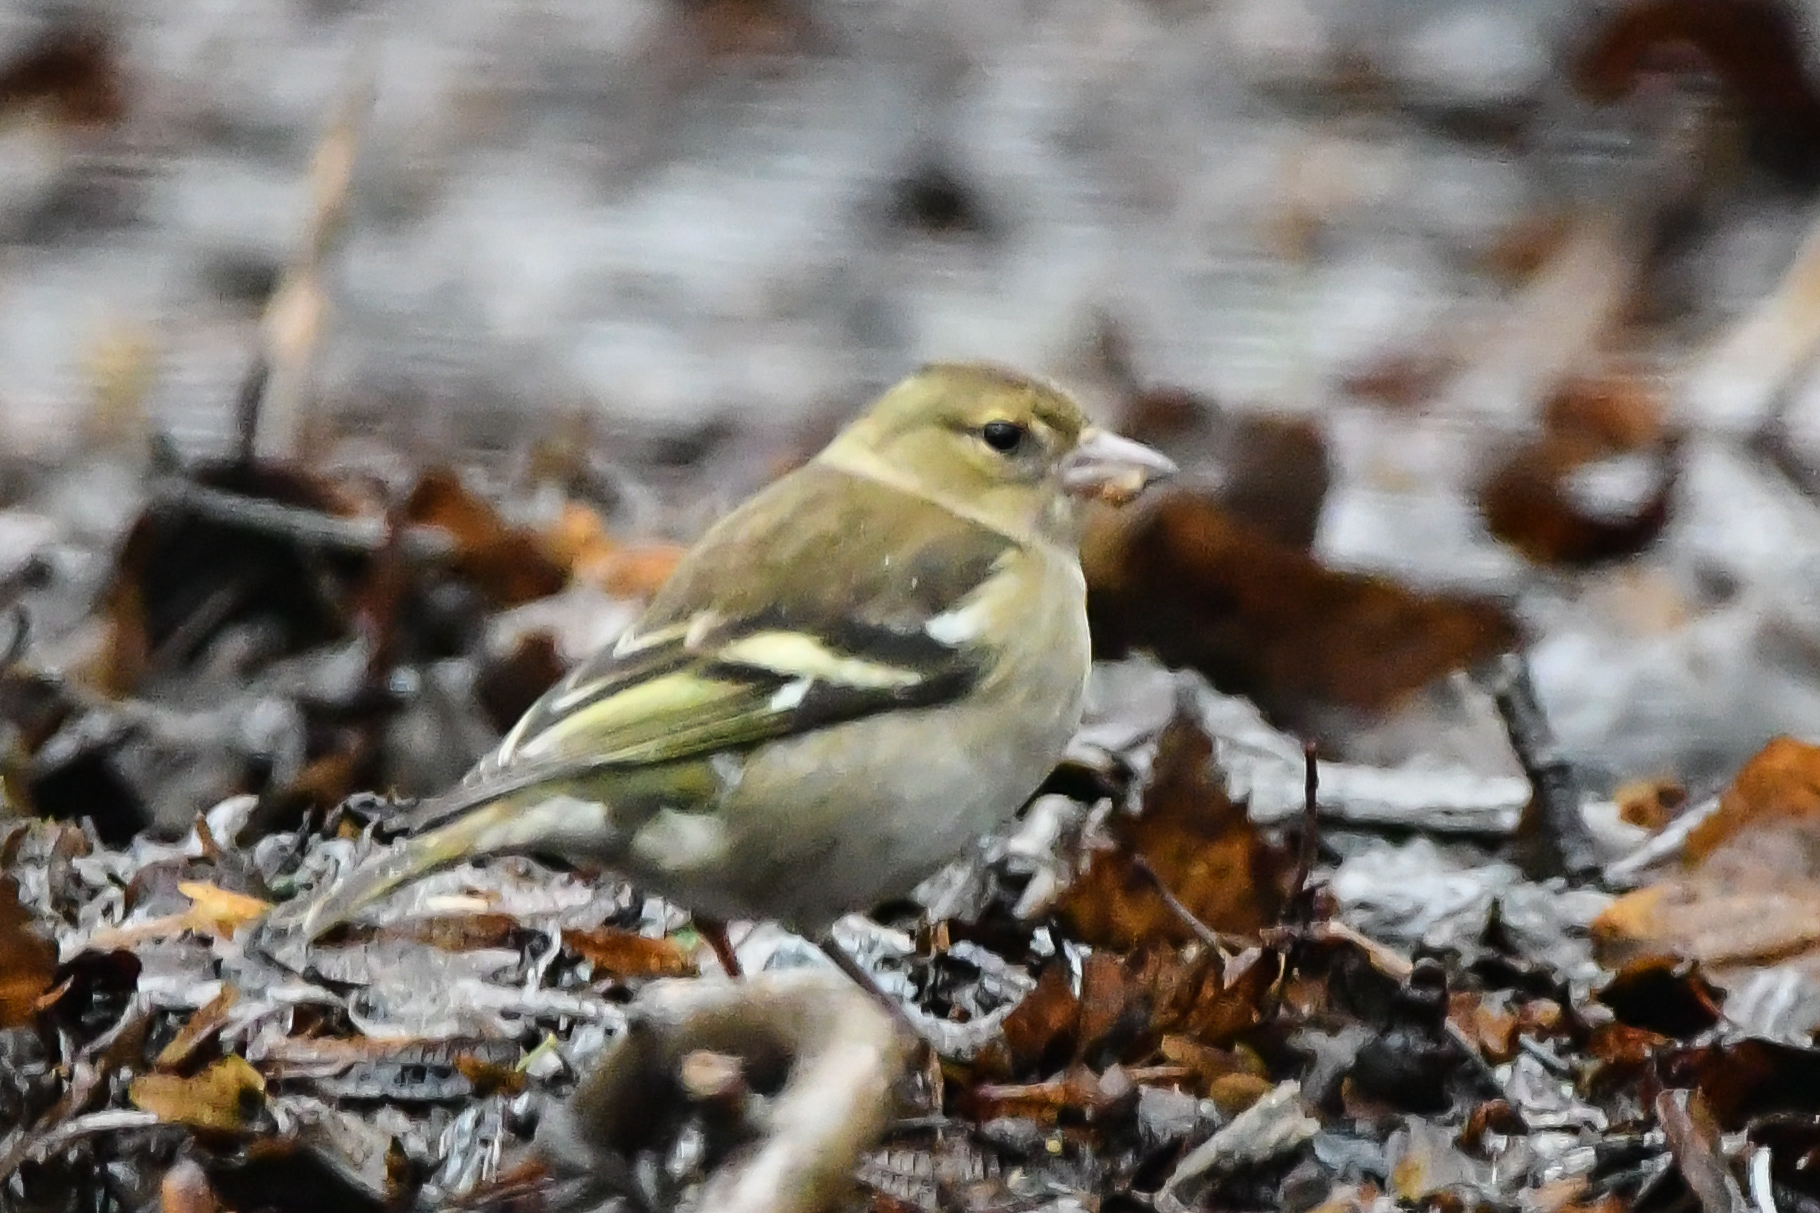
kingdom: Animalia
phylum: Chordata
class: Aves
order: Passeriformes
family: Fringillidae
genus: Fringilla
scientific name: Fringilla coelebs
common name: Common chaffinch
